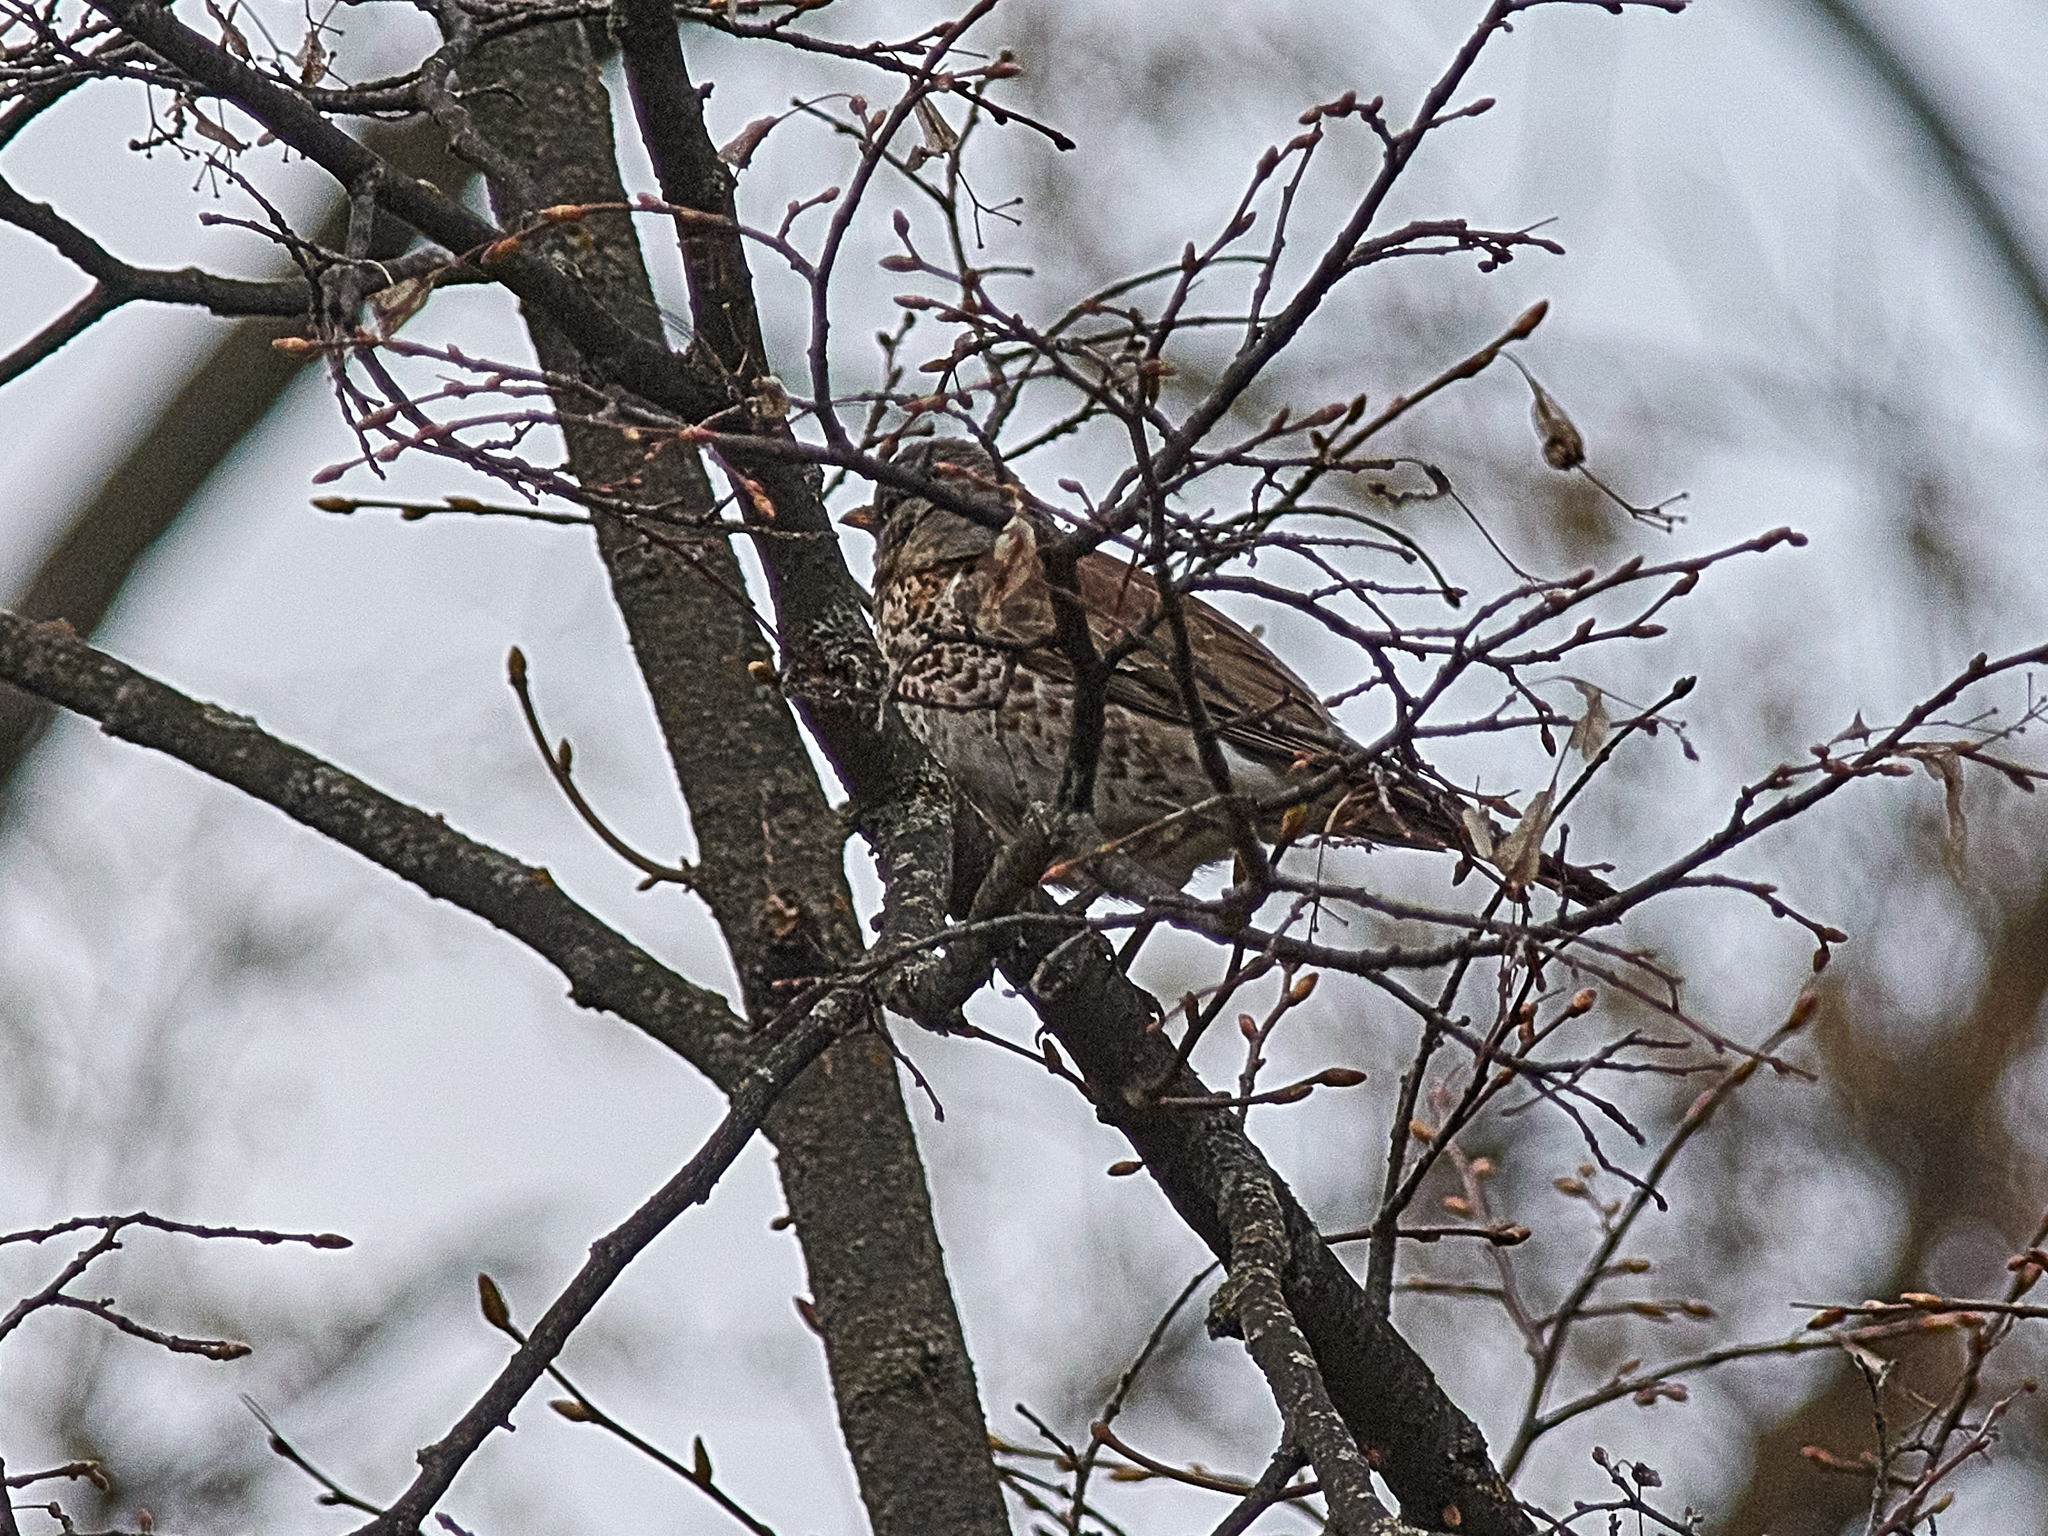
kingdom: Animalia
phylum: Chordata
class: Aves
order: Passeriformes
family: Turdidae
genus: Turdus
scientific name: Turdus pilaris
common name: Fieldfare
